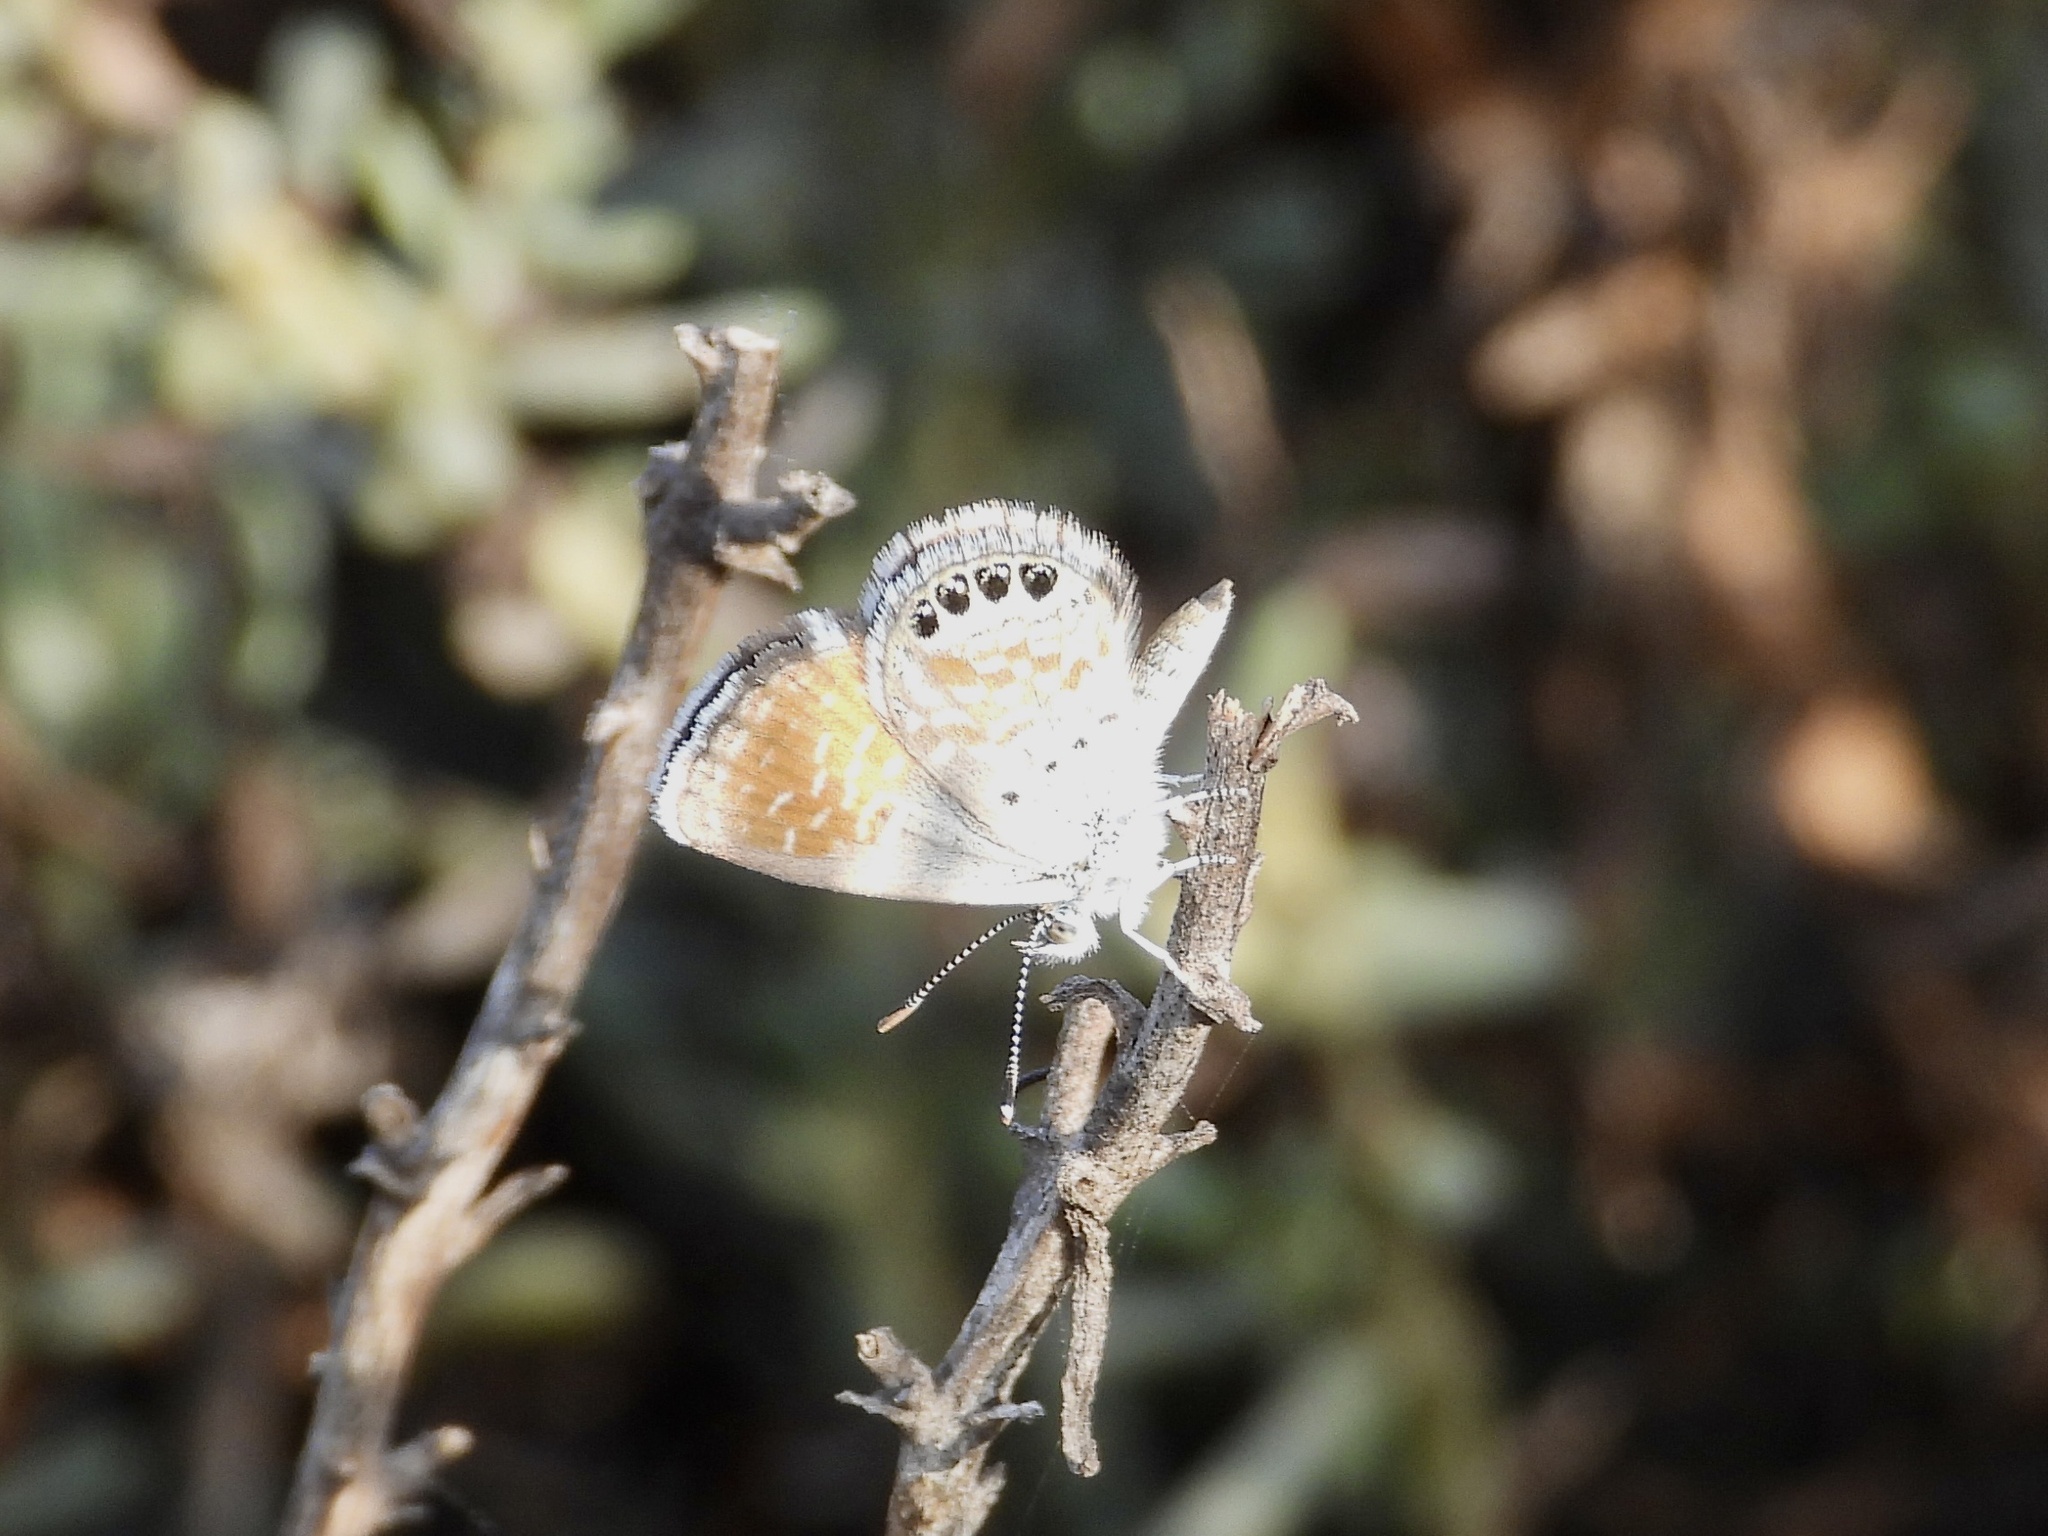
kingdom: Animalia
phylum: Arthropoda
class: Insecta
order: Lepidoptera
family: Lycaenidae
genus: Brephidium
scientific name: Brephidium exilis
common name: Pygmy blue
